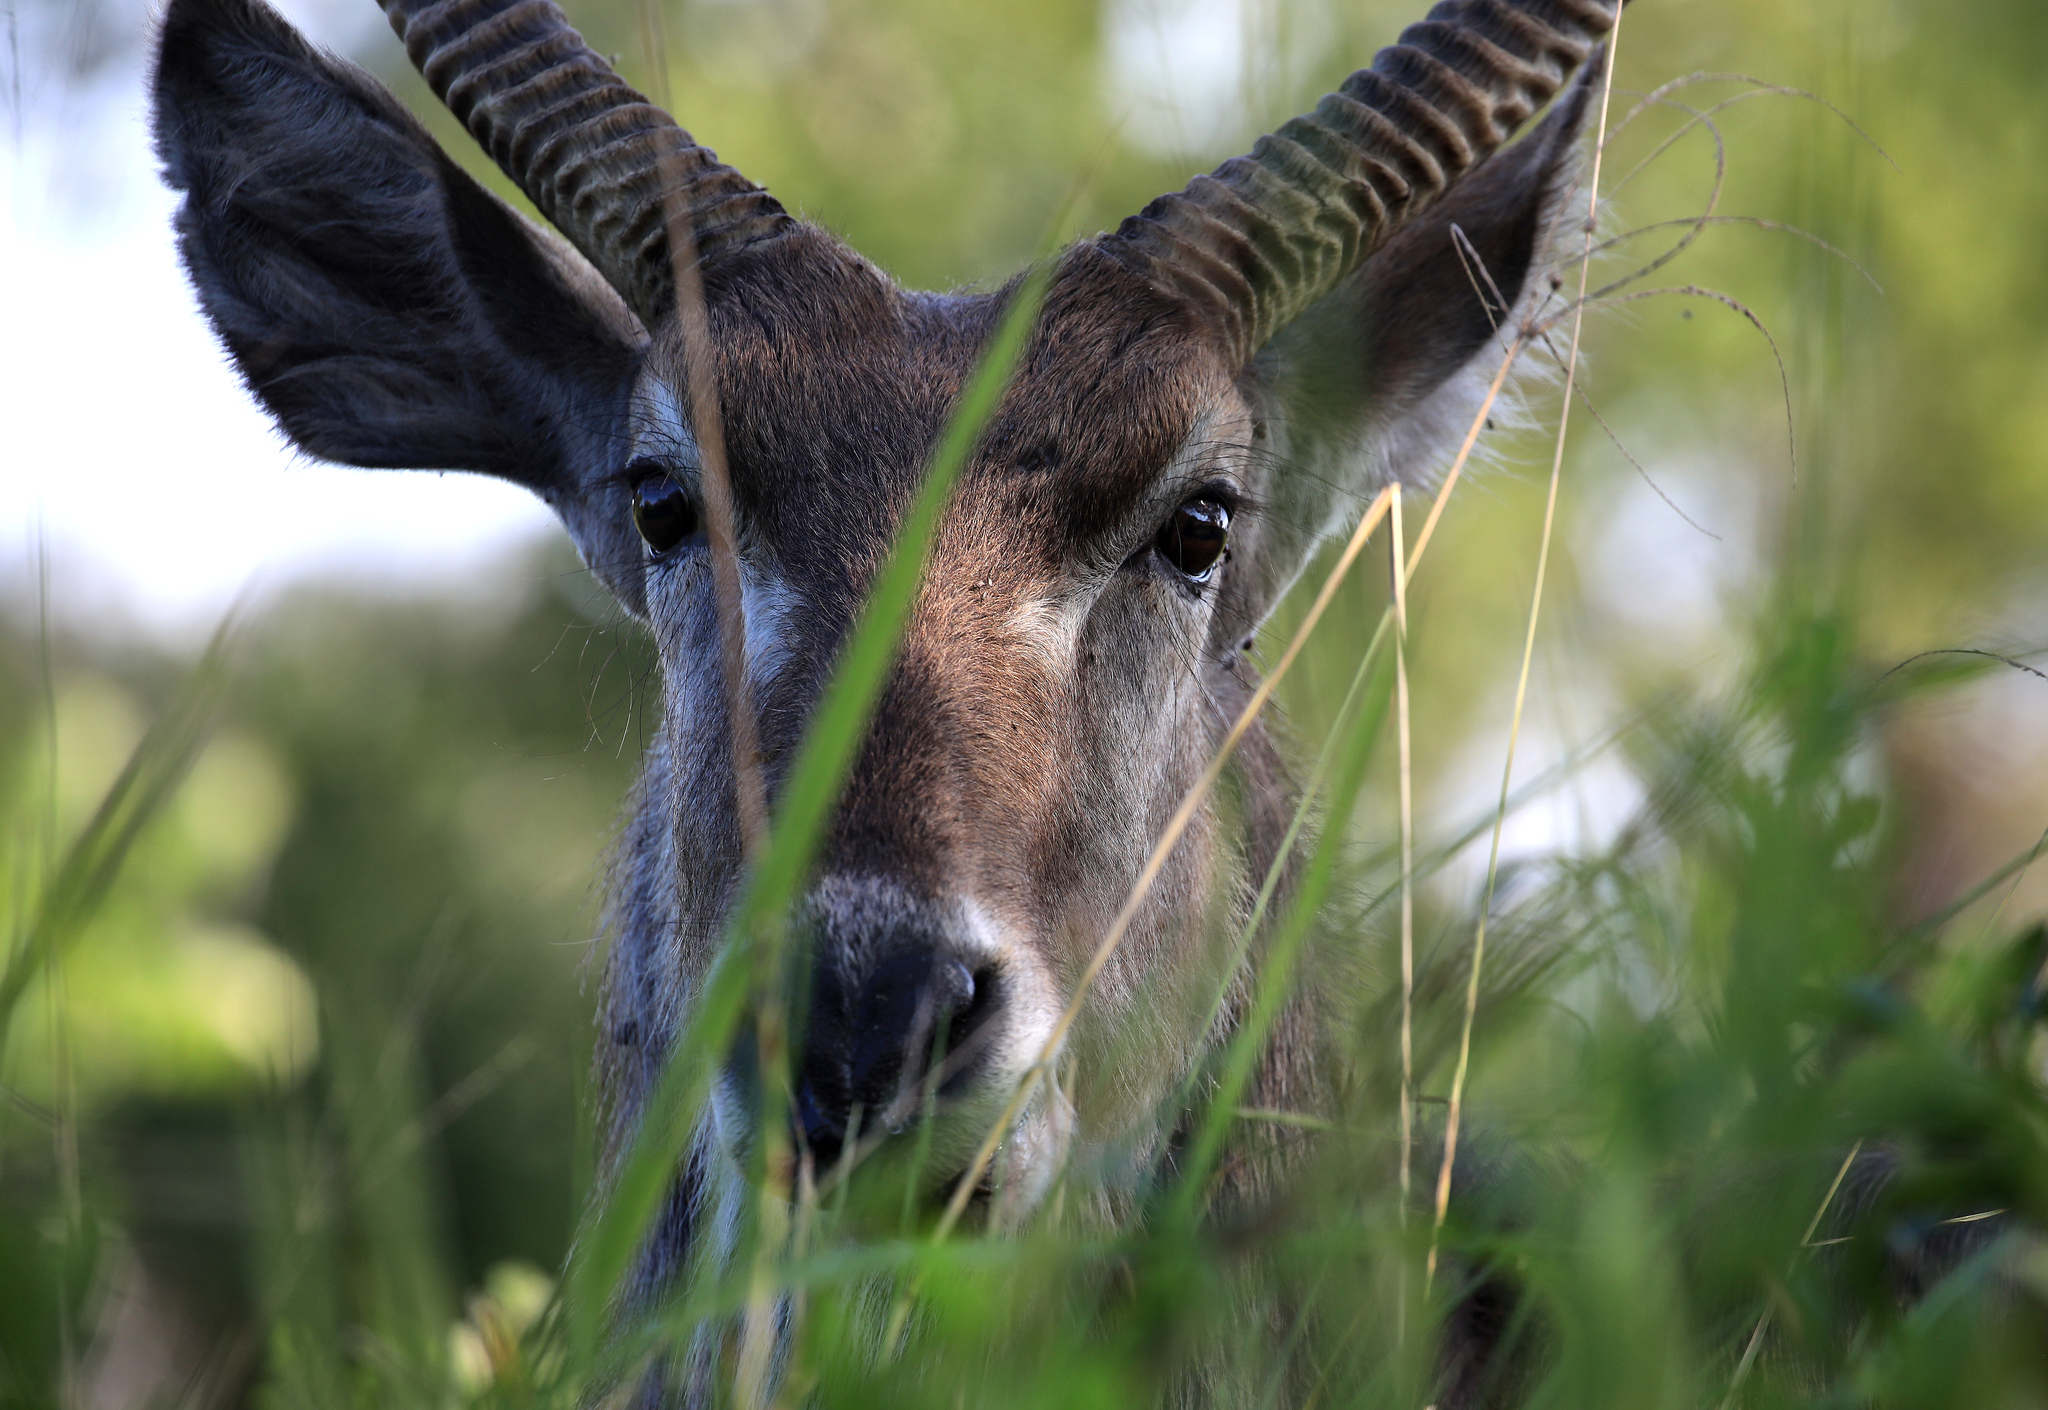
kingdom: Animalia
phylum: Chordata
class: Mammalia
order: Artiodactyla
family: Bovidae
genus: Kobus
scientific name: Kobus ellipsiprymnus
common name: Waterbuck
